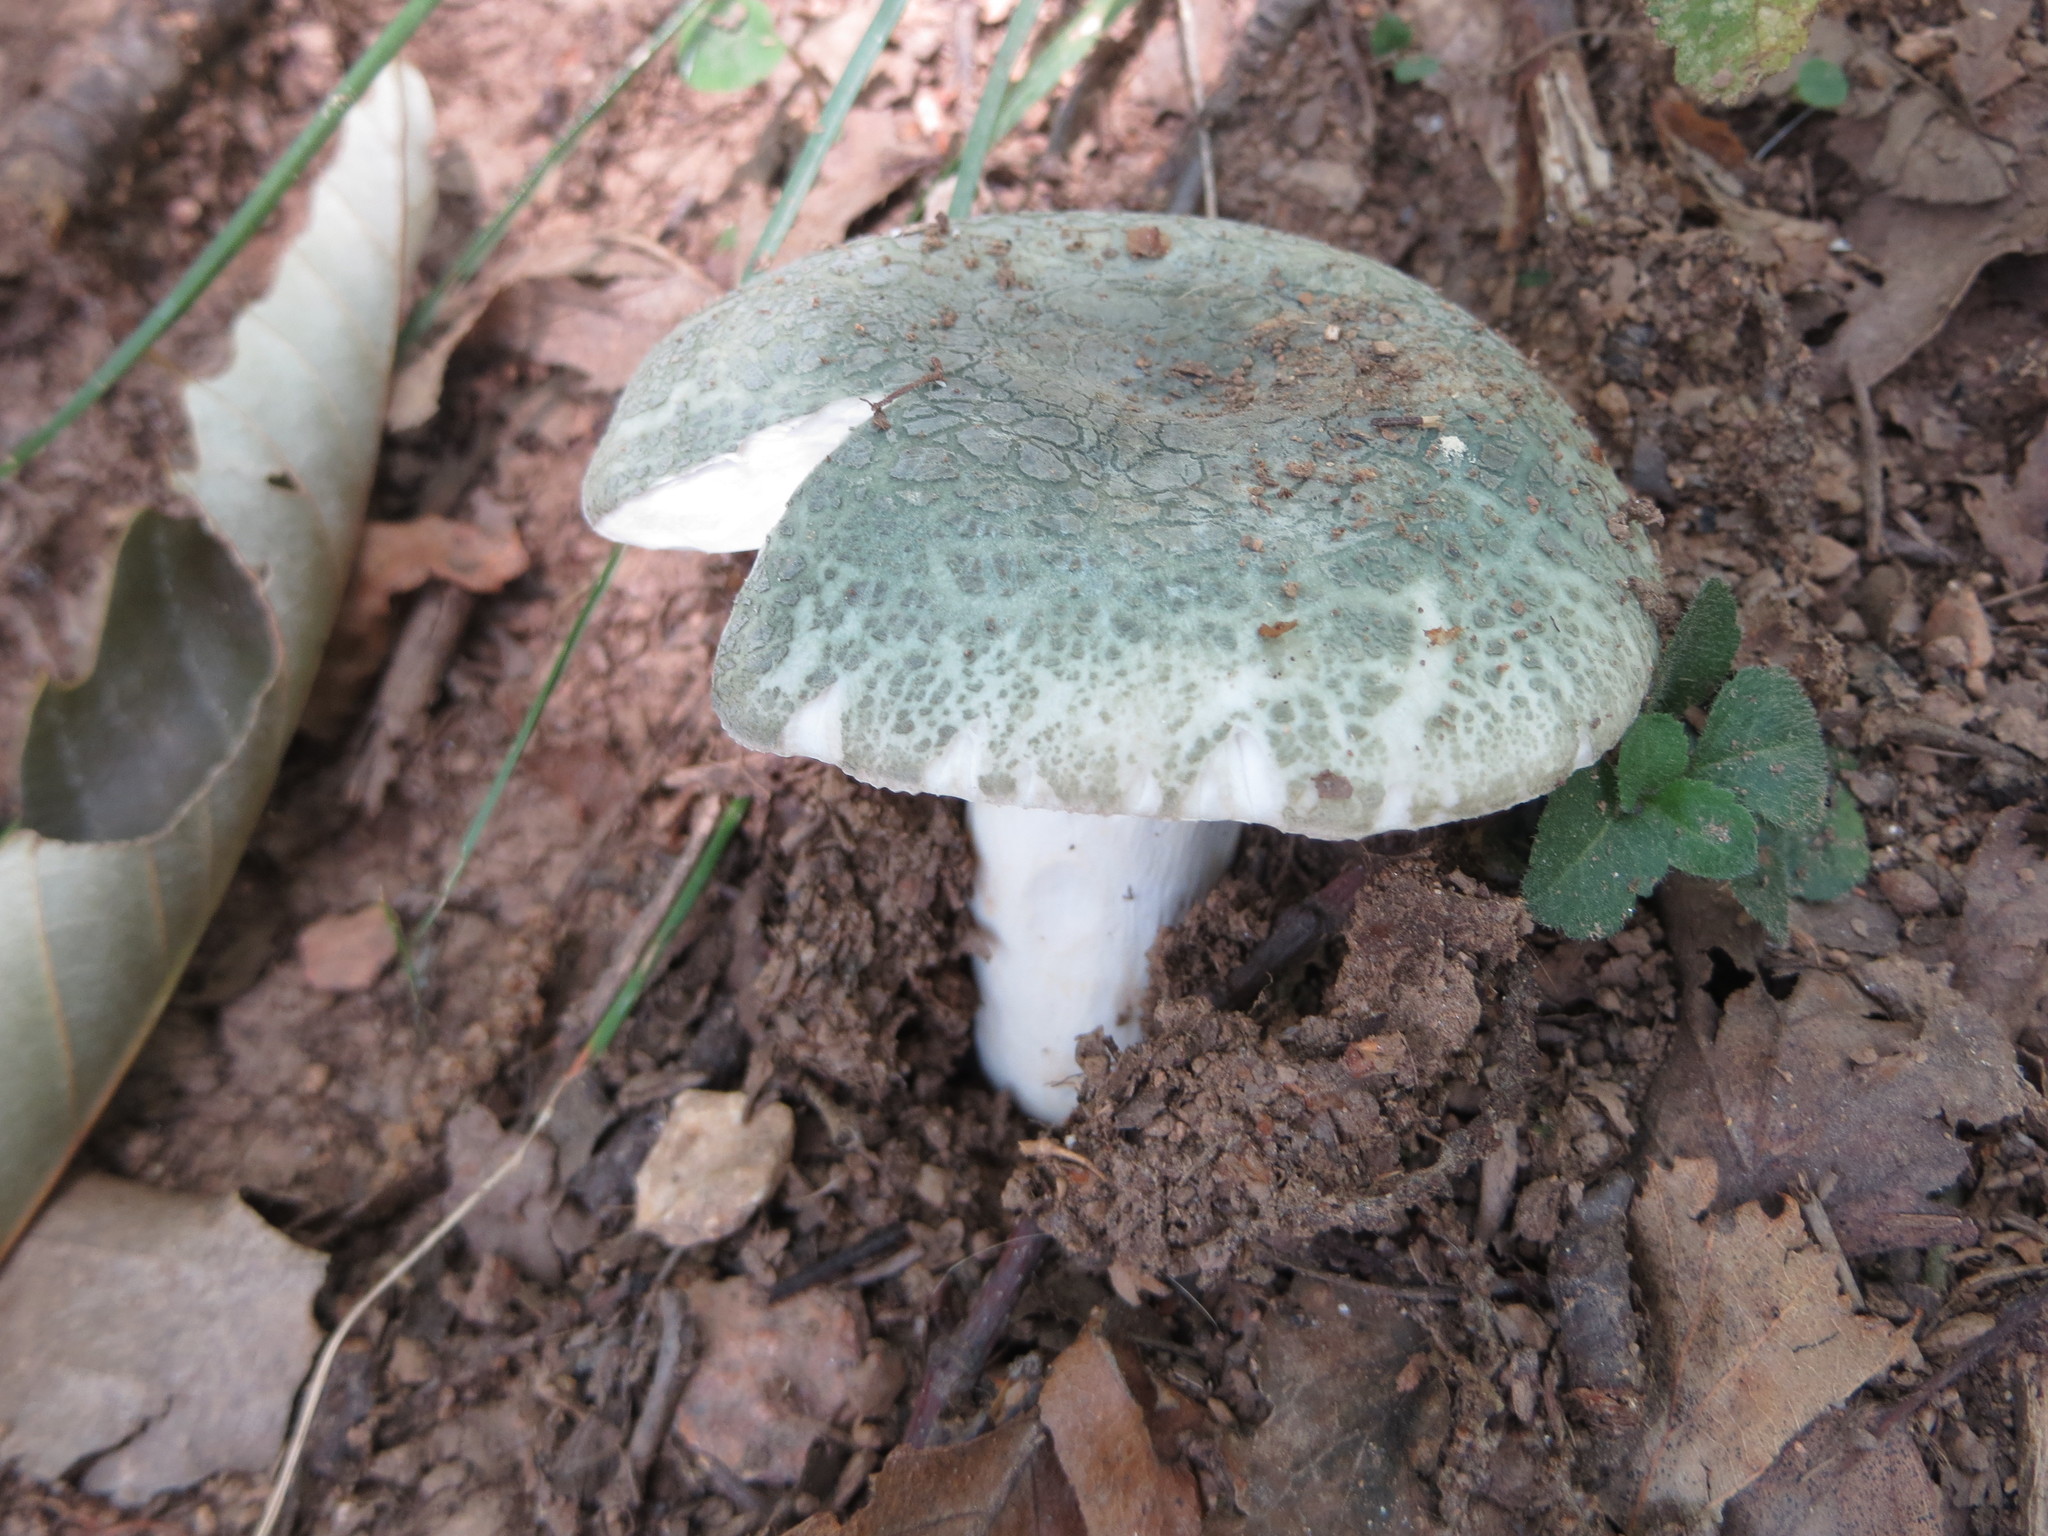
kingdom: Fungi
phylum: Basidiomycota
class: Agaricomycetes
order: Russulales
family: Russulaceae
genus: Russula
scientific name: Russula virescens
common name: Greencracked brittlegill
